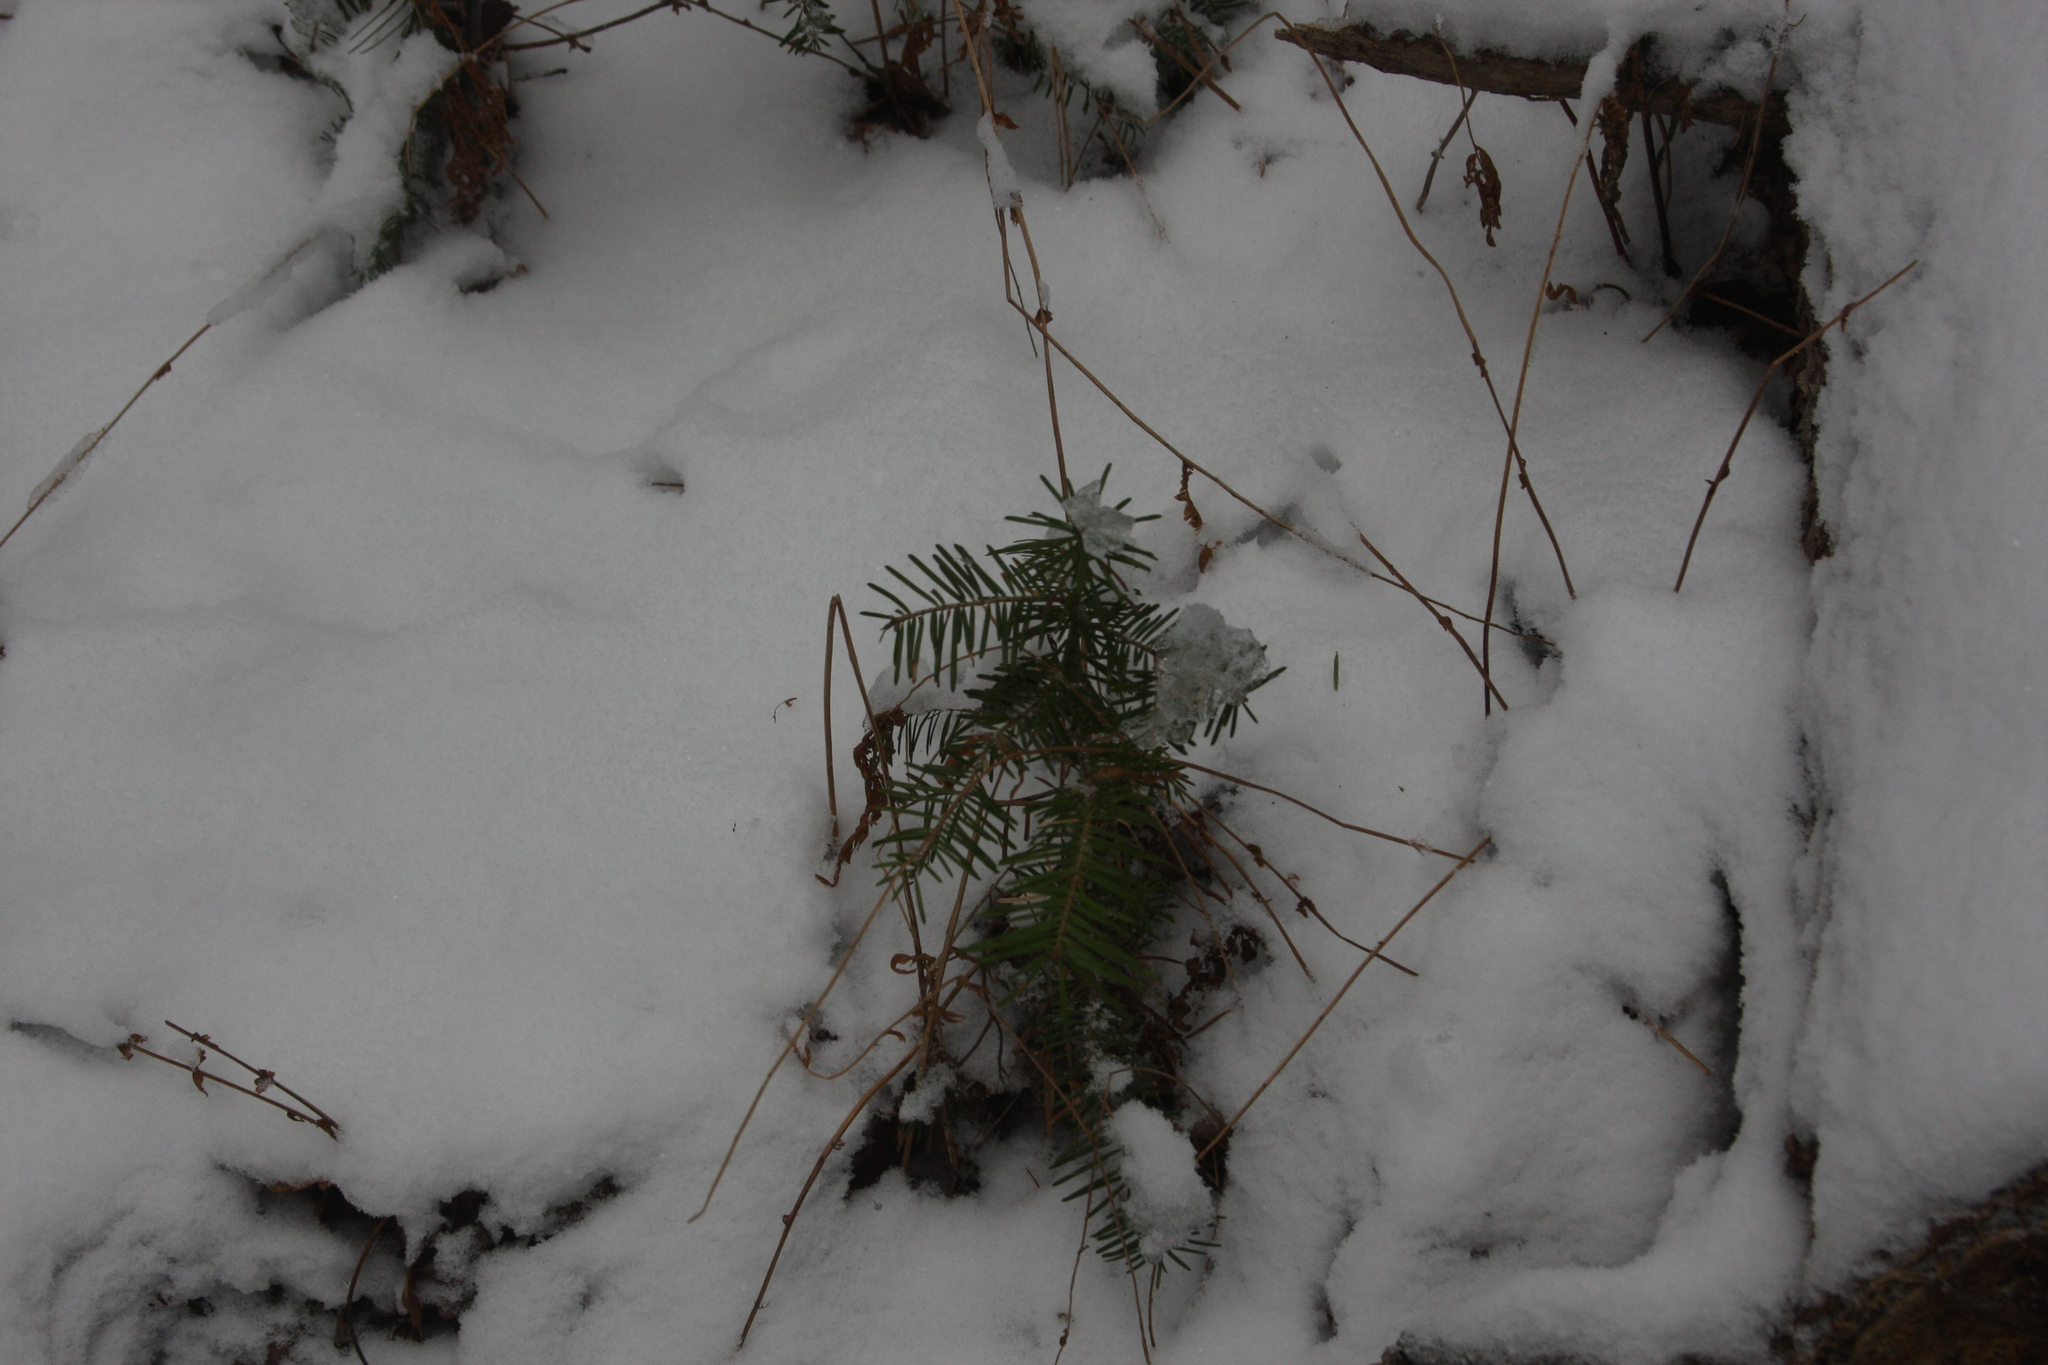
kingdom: Plantae
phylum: Tracheophyta
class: Pinopsida
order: Pinales
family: Pinaceae
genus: Abies
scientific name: Abies balsamea
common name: Balsam fir
